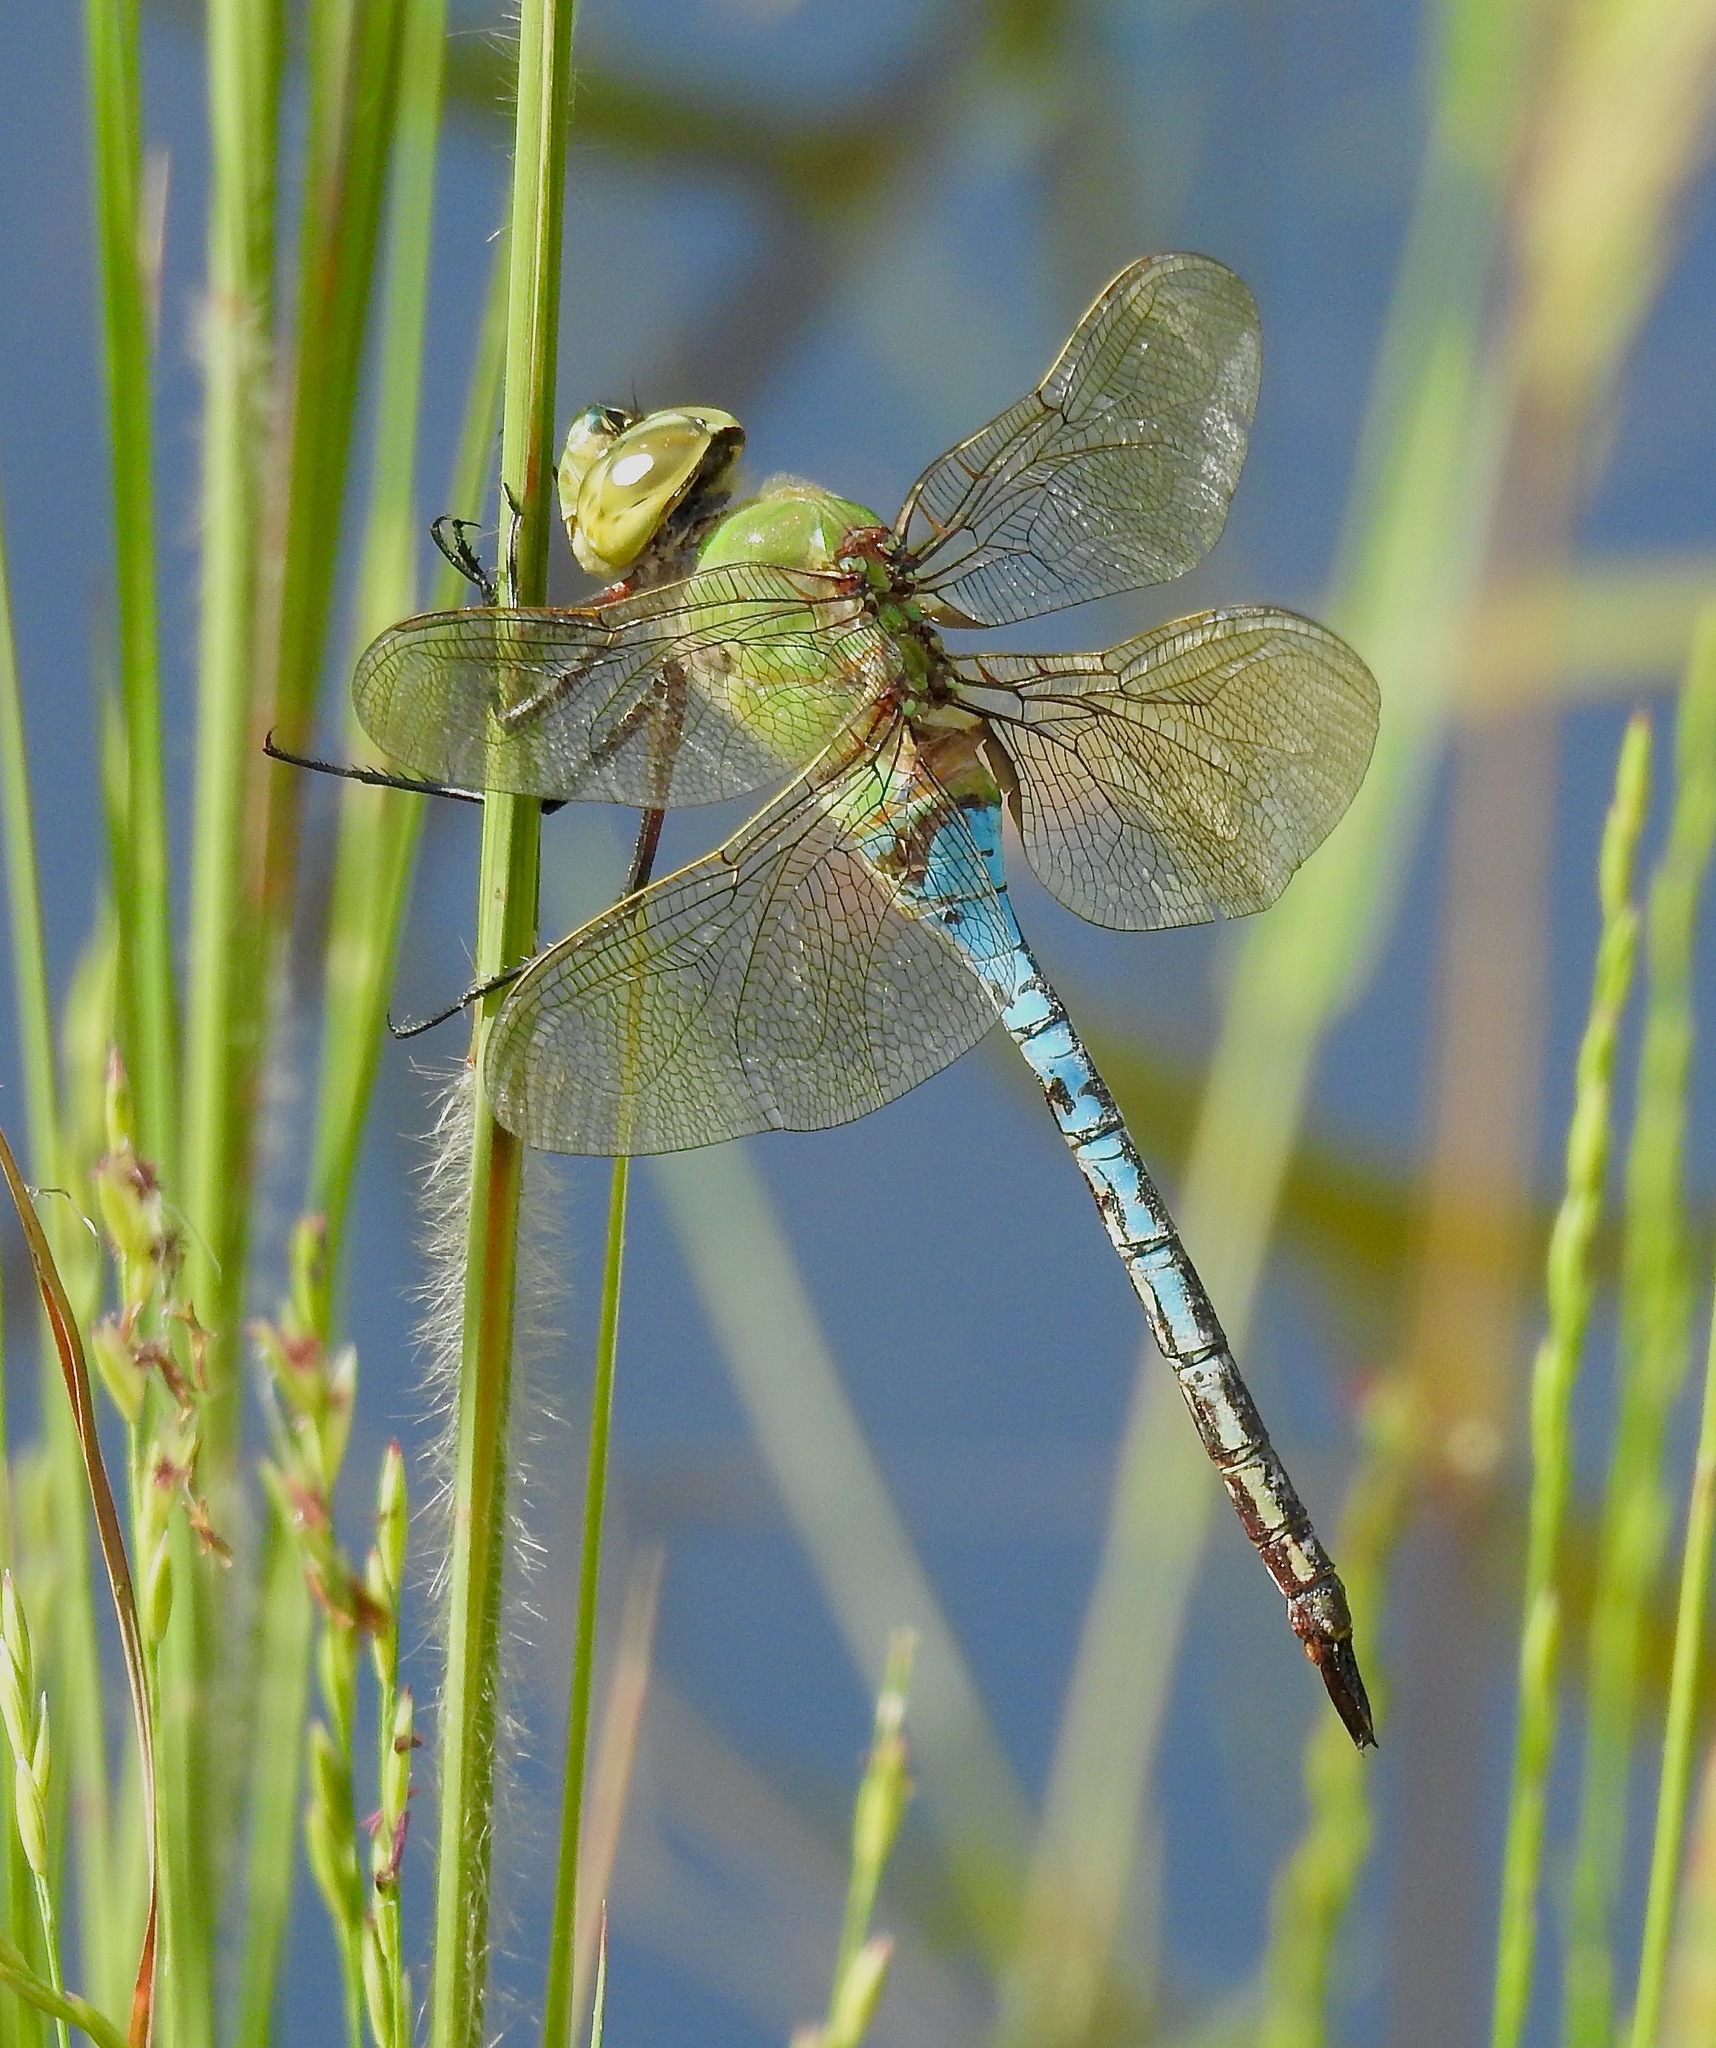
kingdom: Animalia
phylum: Arthropoda
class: Insecta
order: Odonata
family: Aeshnidae
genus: Anax
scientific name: Anax junius
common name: Common green darner
